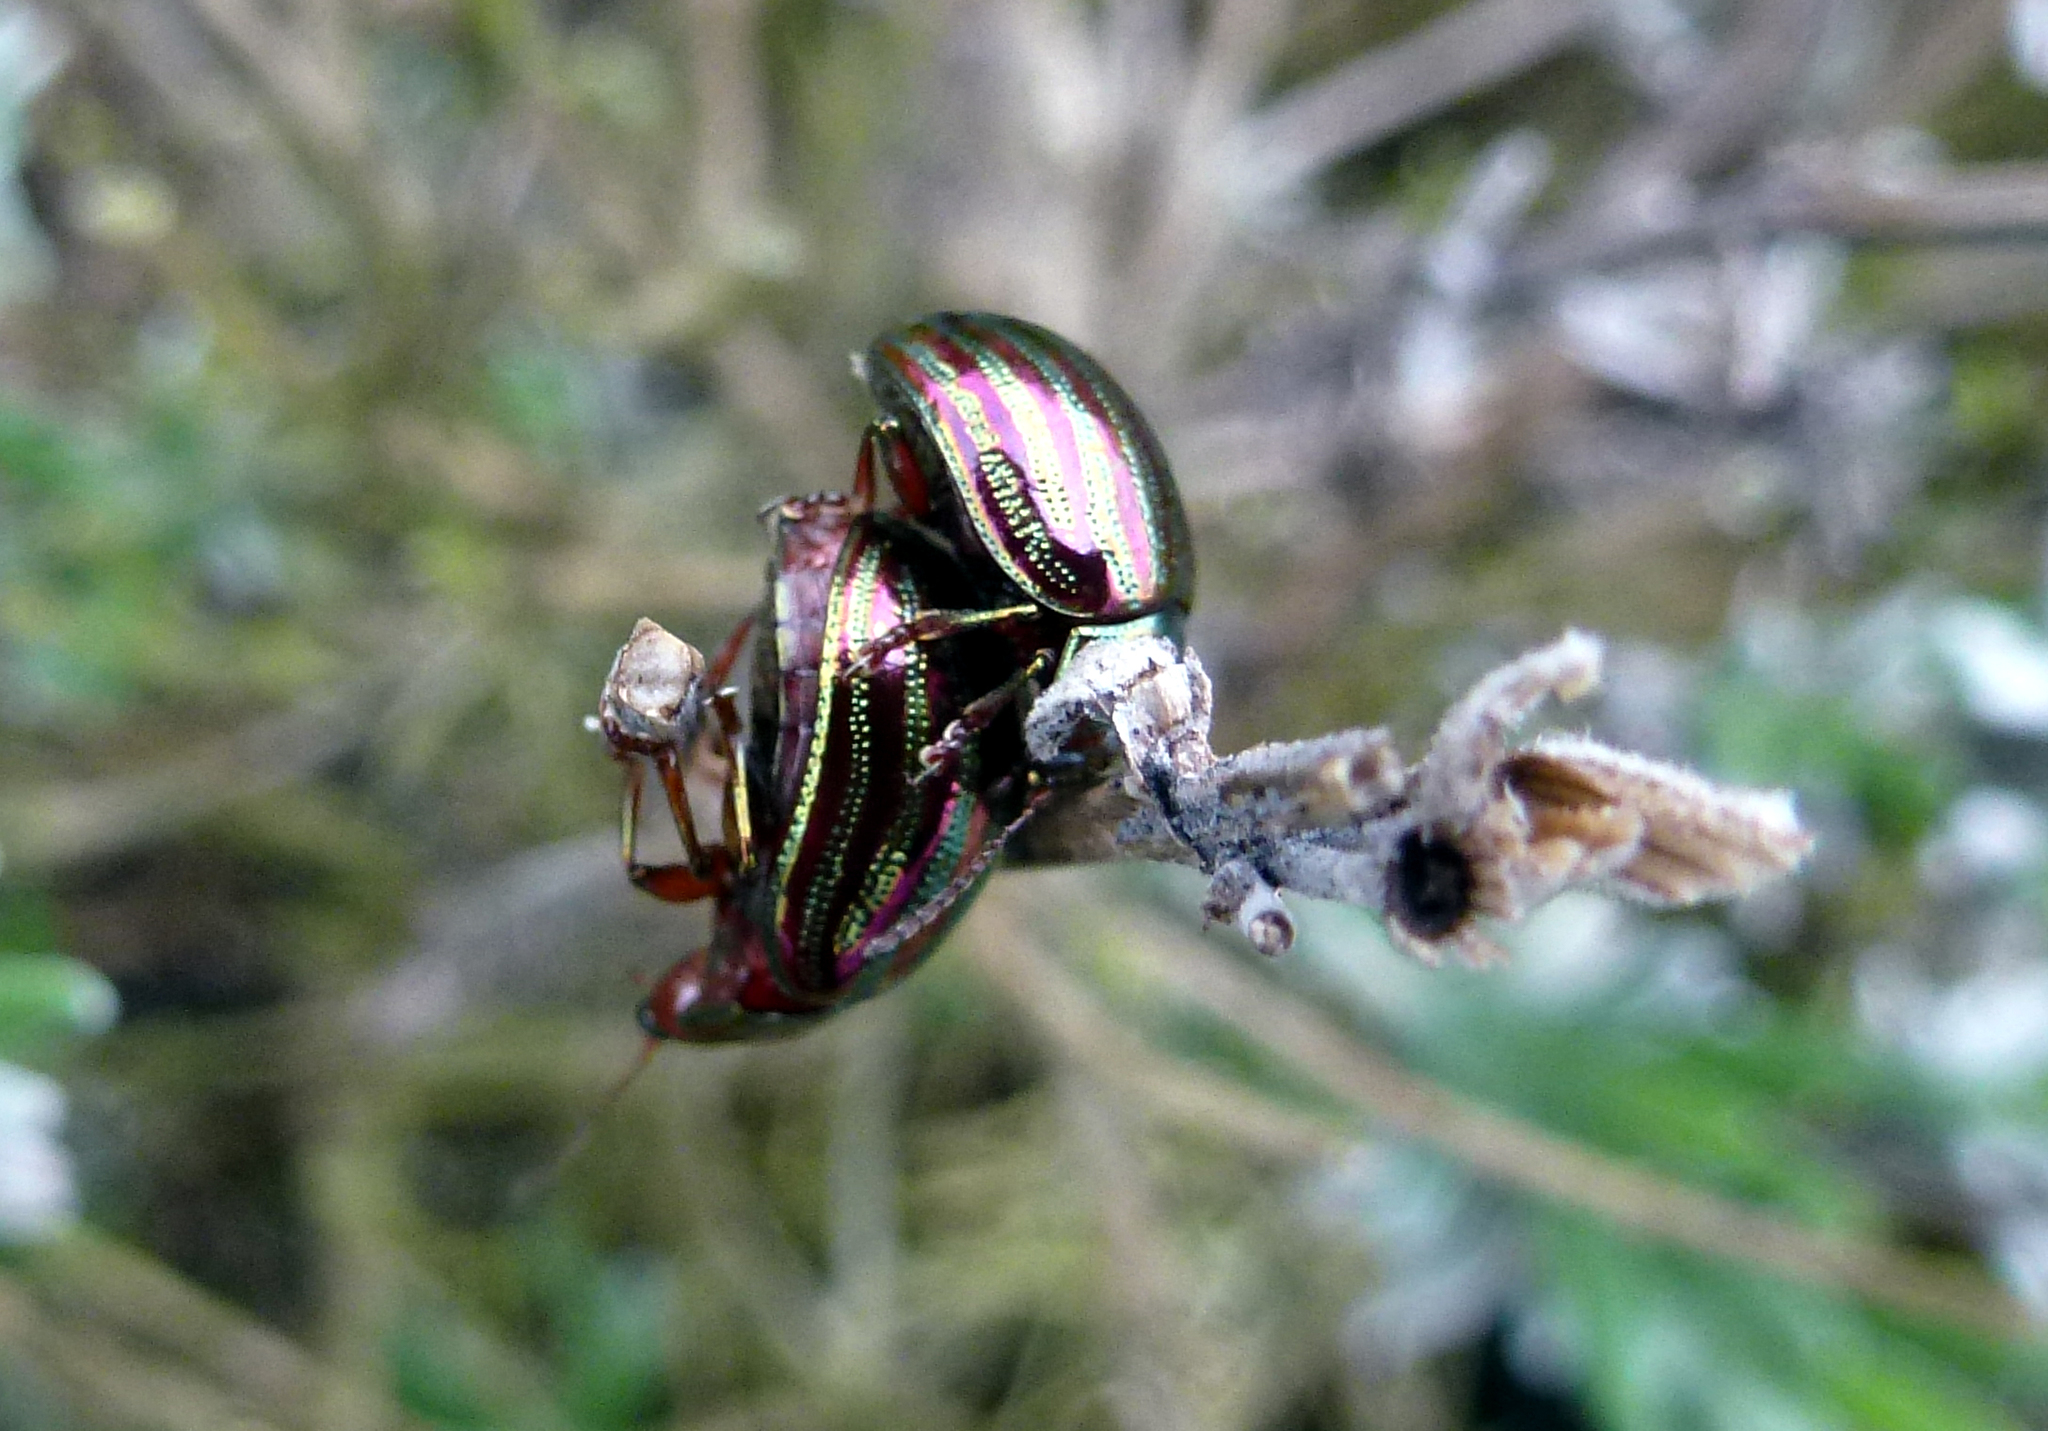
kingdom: Animalia
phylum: Arthropoda
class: Insecta
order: Coleoptera
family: Chrysomelidae
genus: Chrysolina
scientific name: Chrysolina americana
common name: Rosemary beetle
